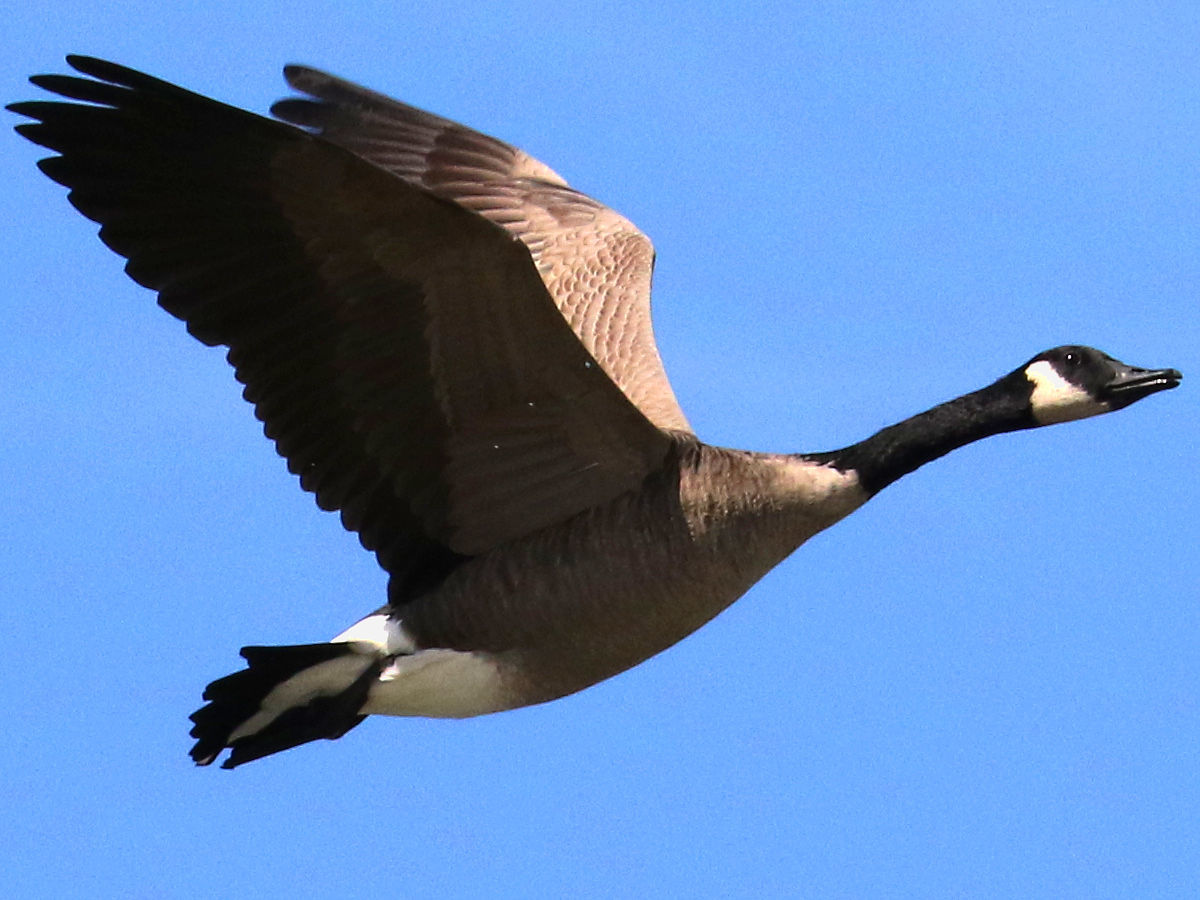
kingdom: Animalia
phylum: Chordata
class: Aves
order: Anseriformes
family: Anatidae
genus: Branta
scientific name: Branta canadensis
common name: Canada goose
